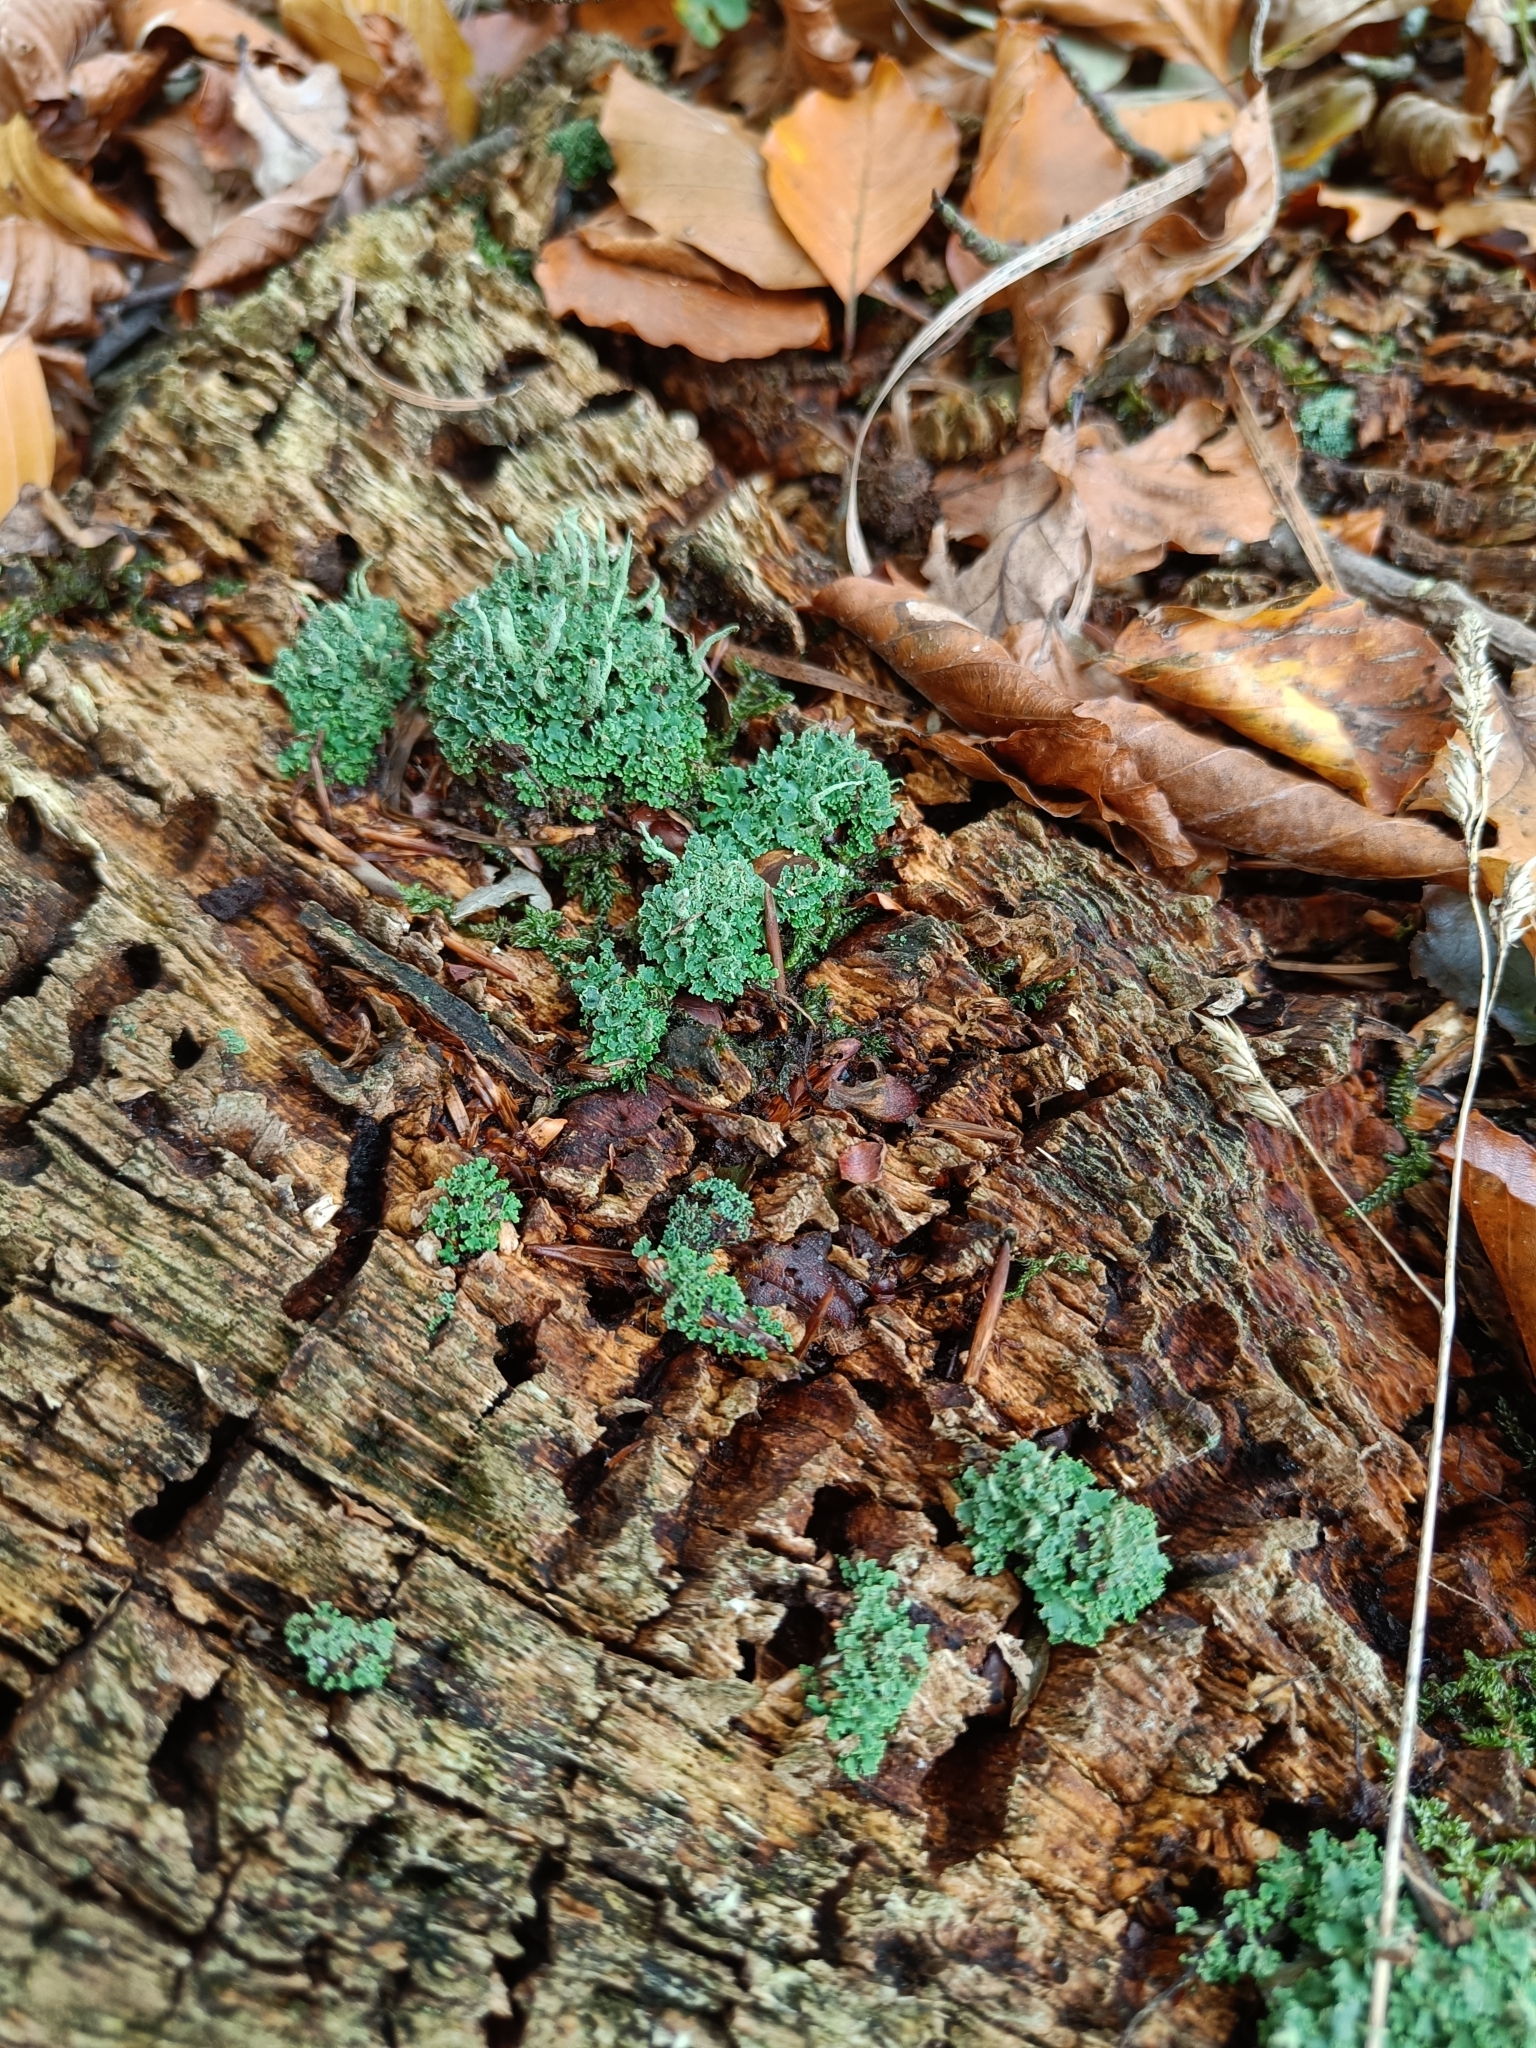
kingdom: Fungi
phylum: Ascomycota
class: Lecanoromycetes
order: Lecanorales
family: Cladoniaceae
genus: Cladonia
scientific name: Cladonia coniocraea
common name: Common powderhorn
